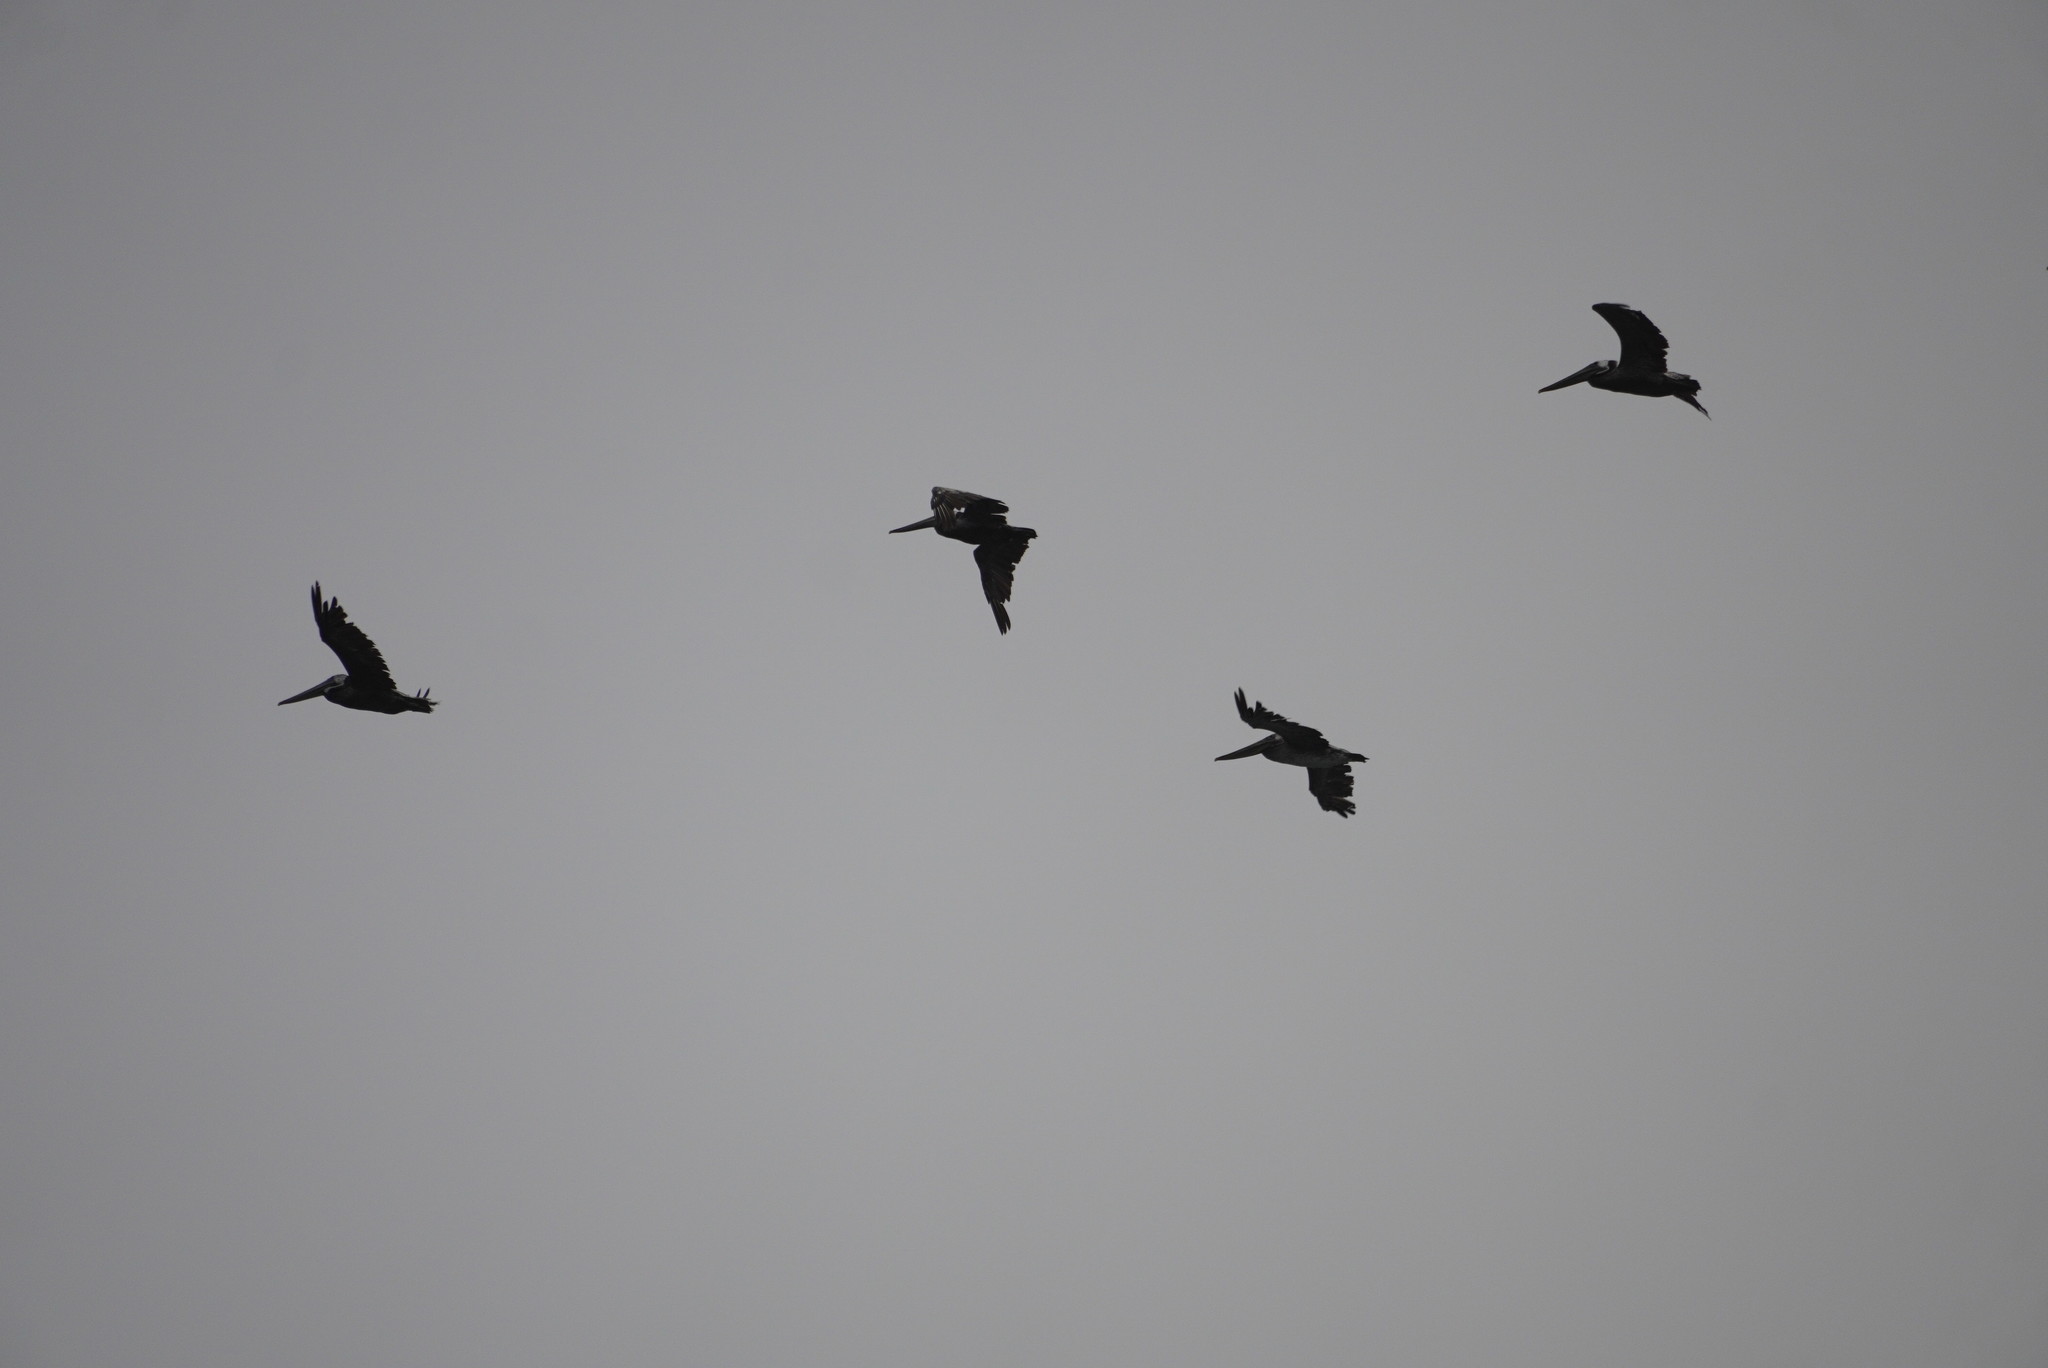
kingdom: Animalia
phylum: Chordata
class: Aves
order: Pelecaniformes
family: Pelecanidae
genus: Pelecanus
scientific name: Pelecanus occidentalis
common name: Brown pelican
